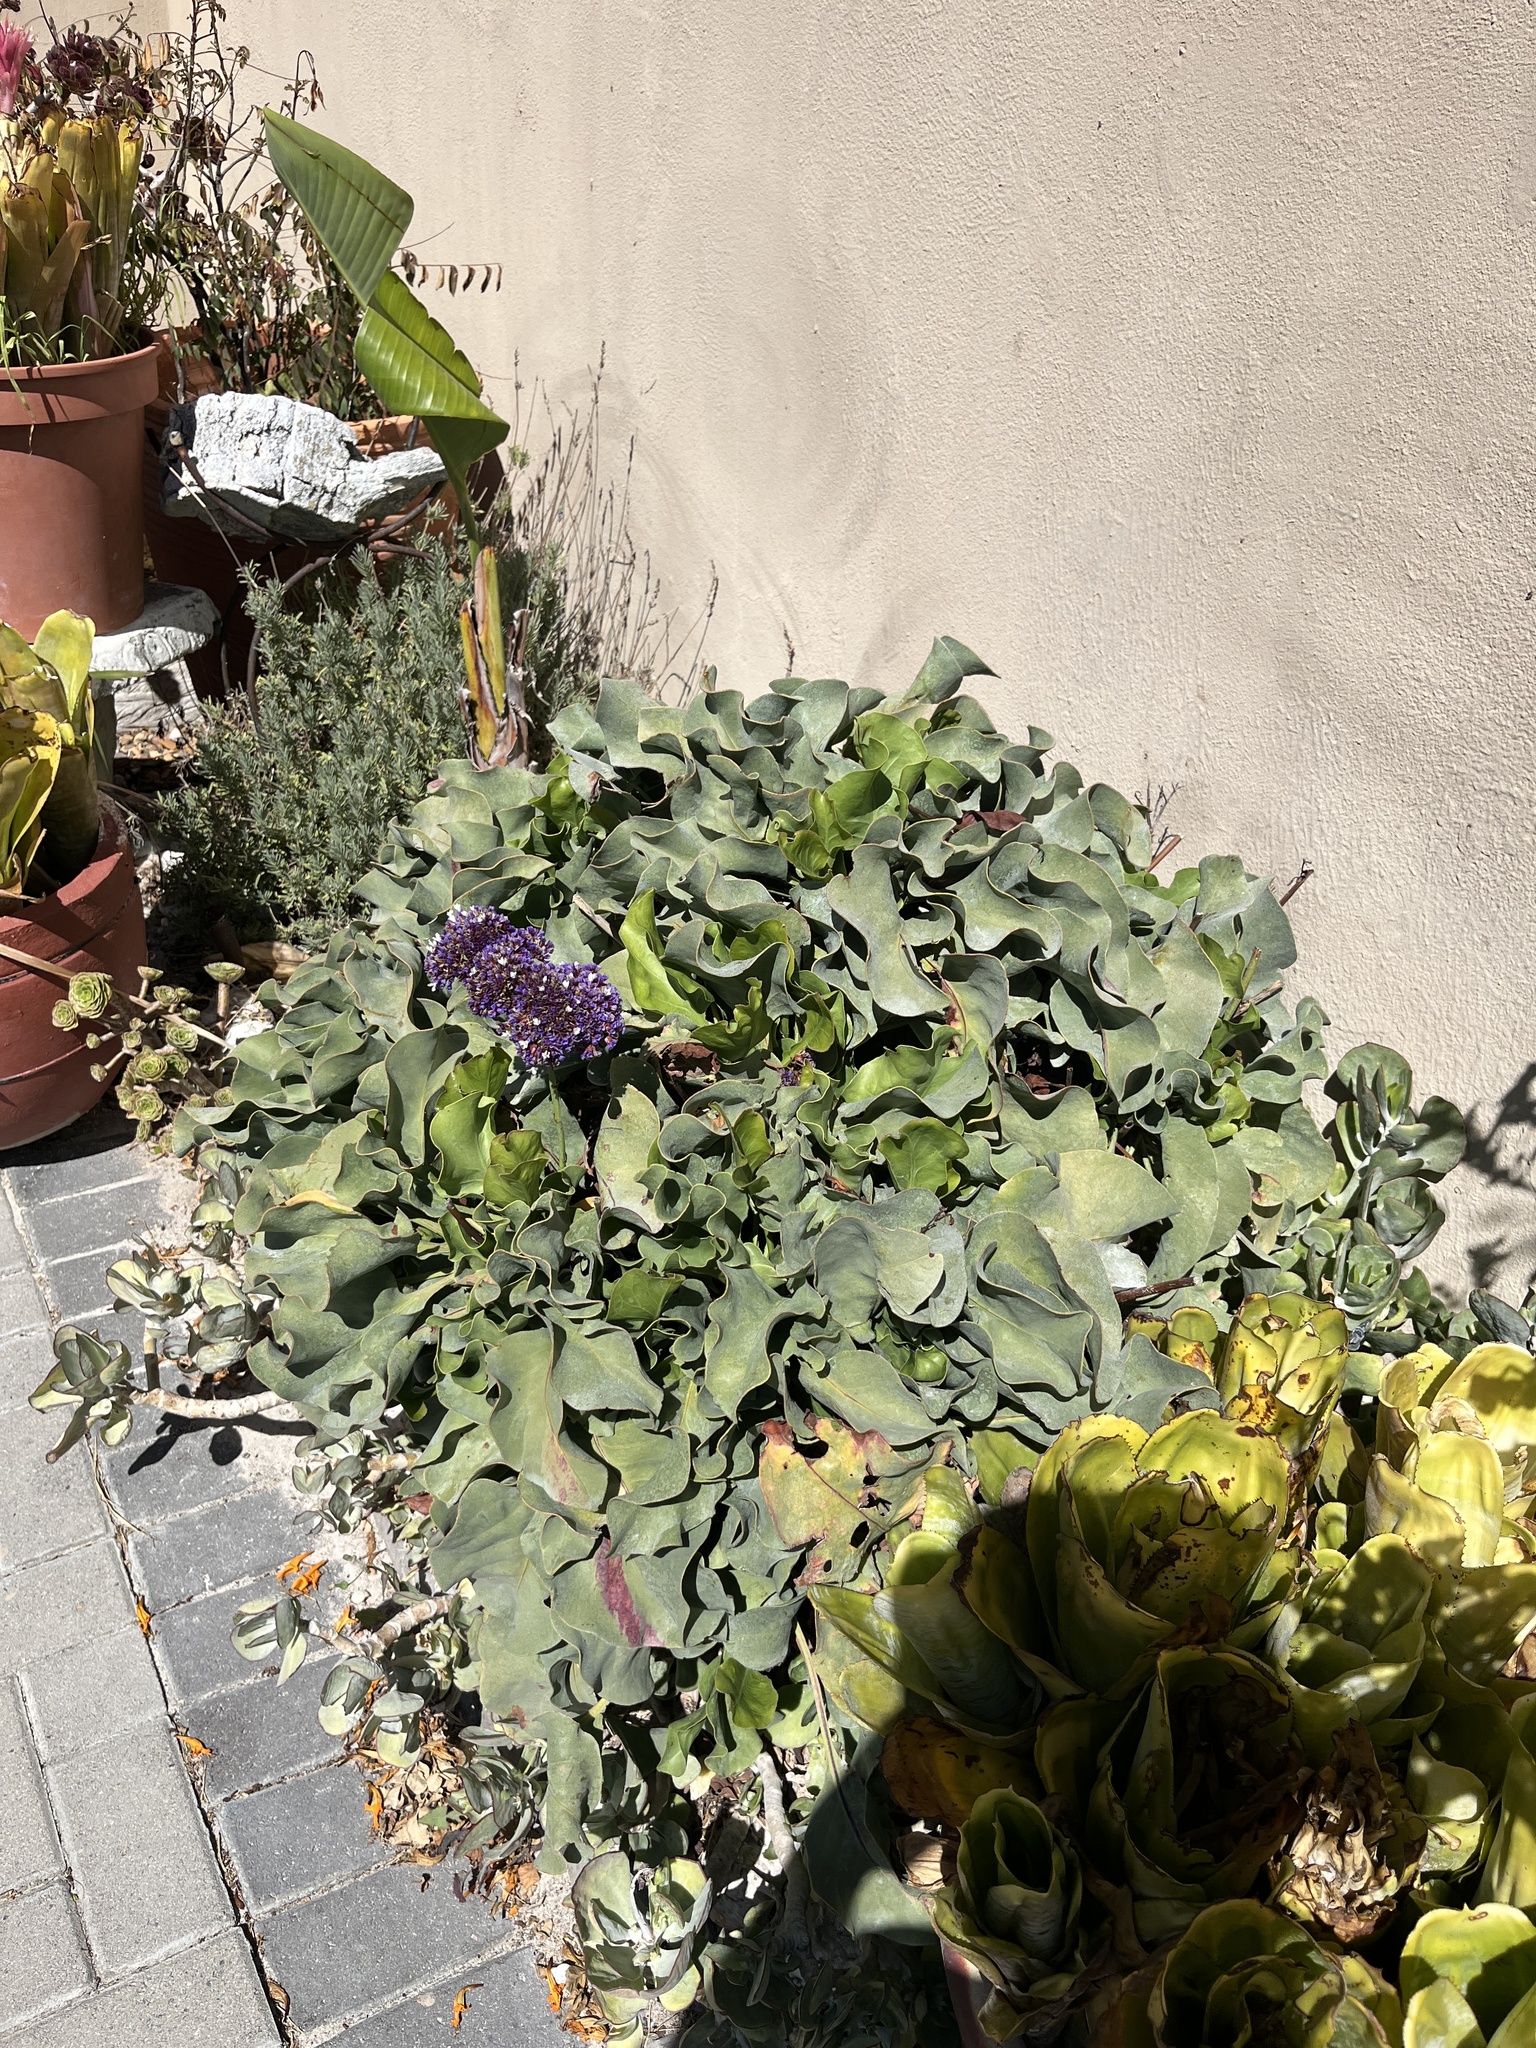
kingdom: Plantae
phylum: Tracheophyta
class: Magnoliopsida
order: Caryophyllales
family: Plumbaginaceae
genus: Limonium
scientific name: Limonium perezii
